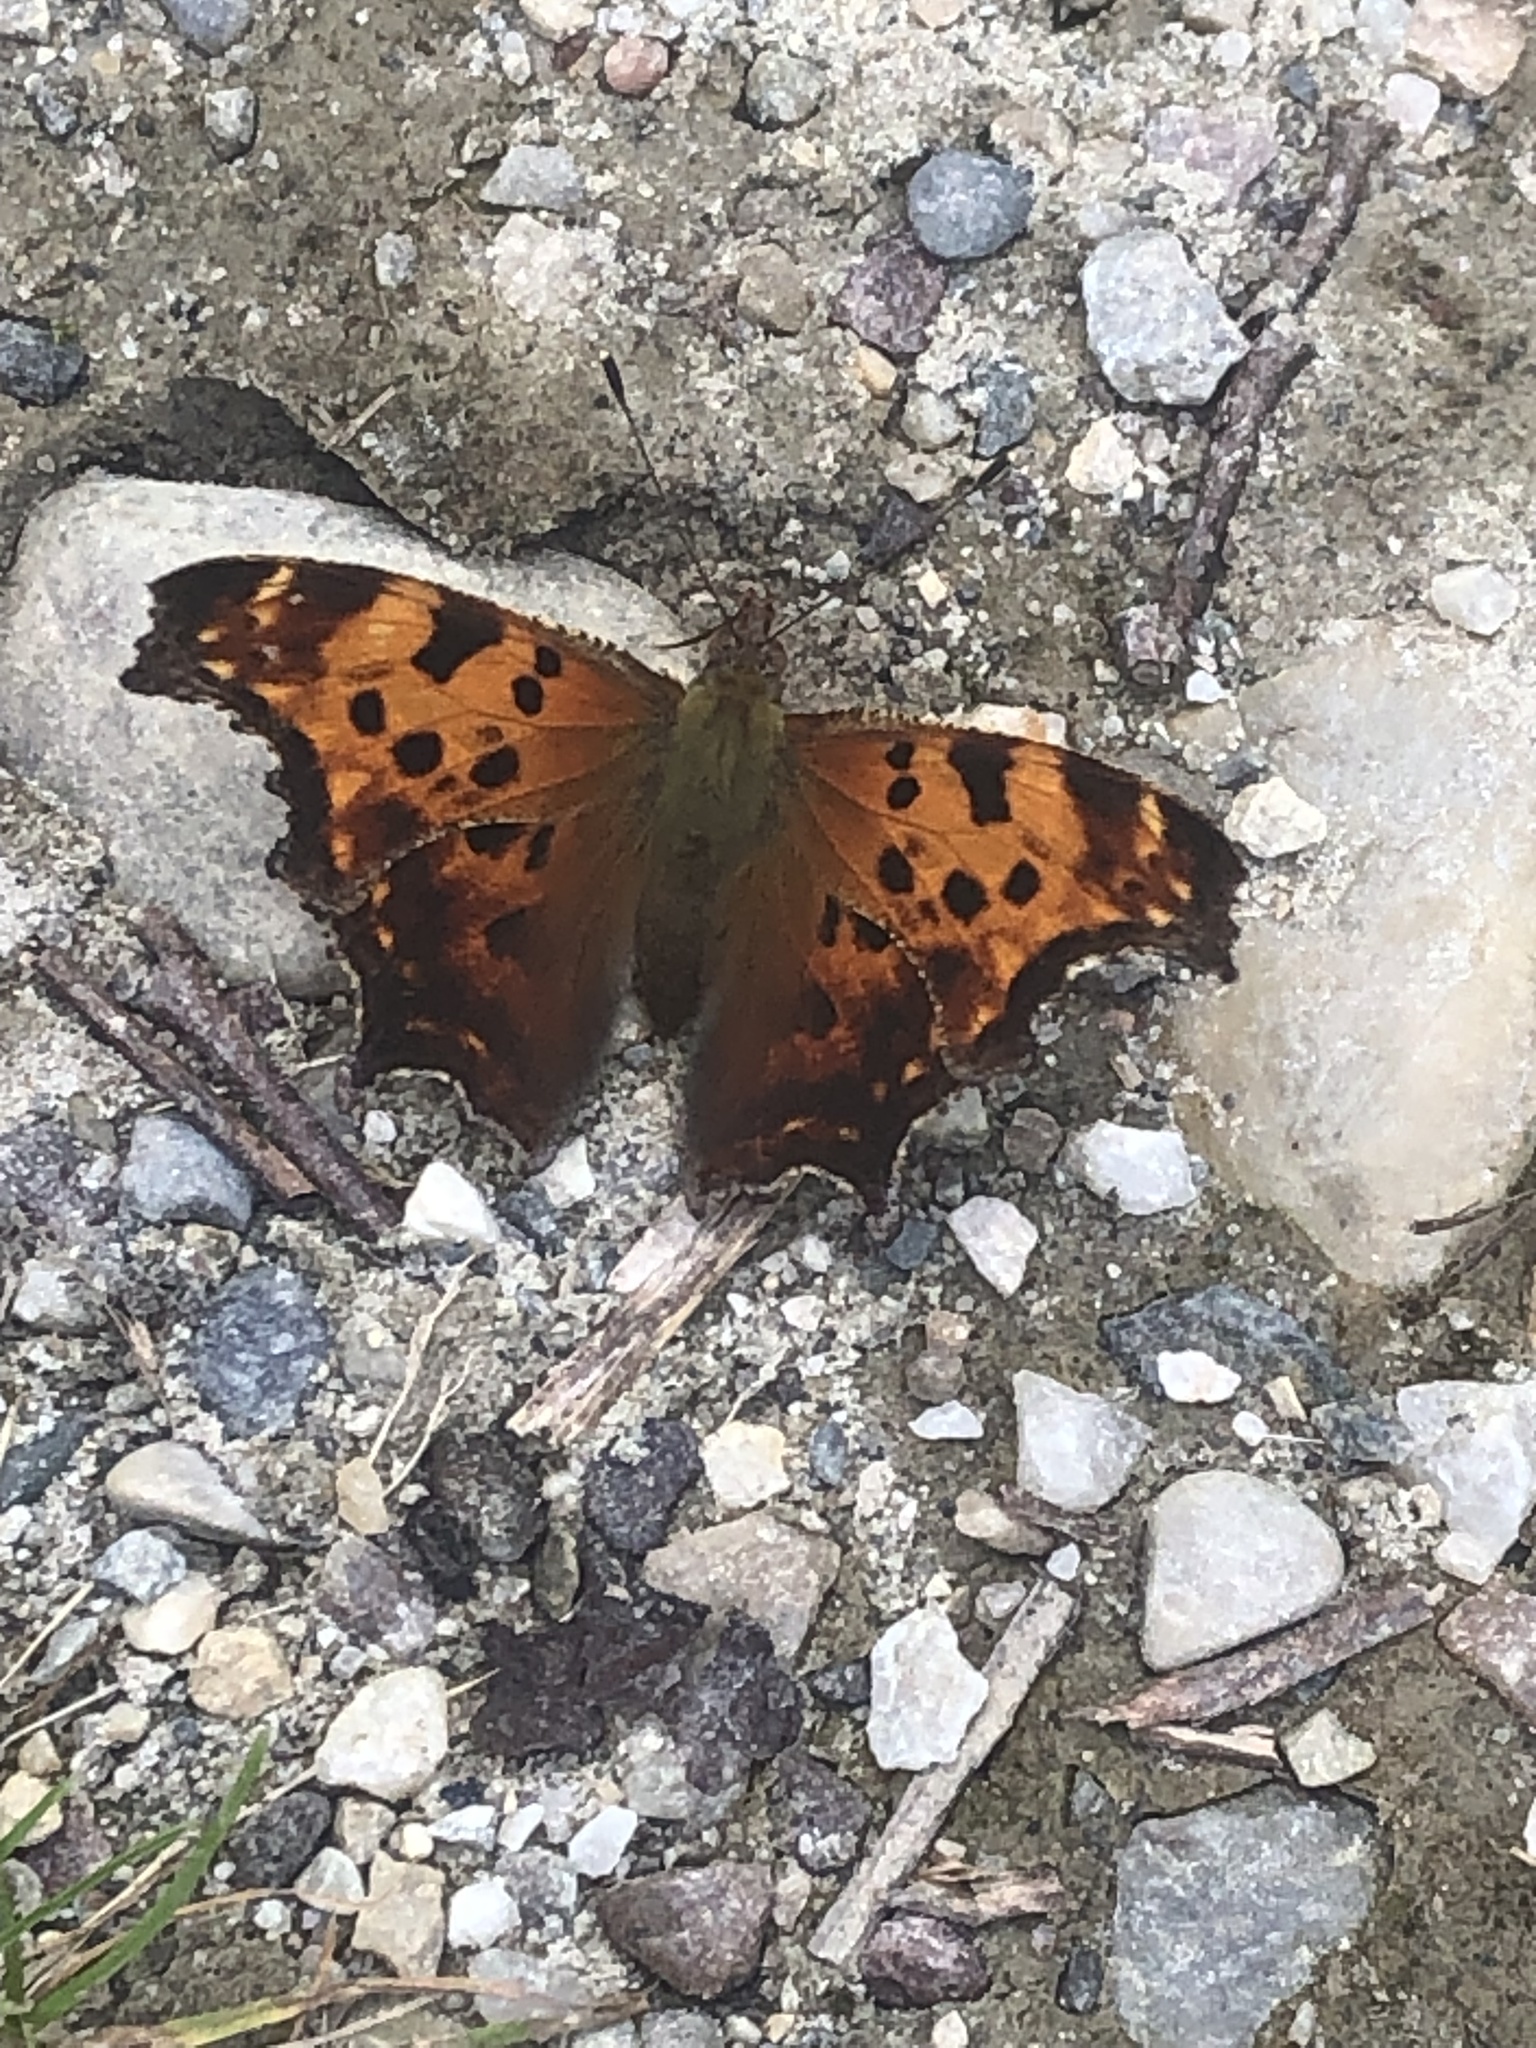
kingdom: Animalia
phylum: Arthropoda
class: Insecta
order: Lepidoptera
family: Nymphalidae
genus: Polygonia
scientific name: Polygonia comma
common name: Eastern comma
